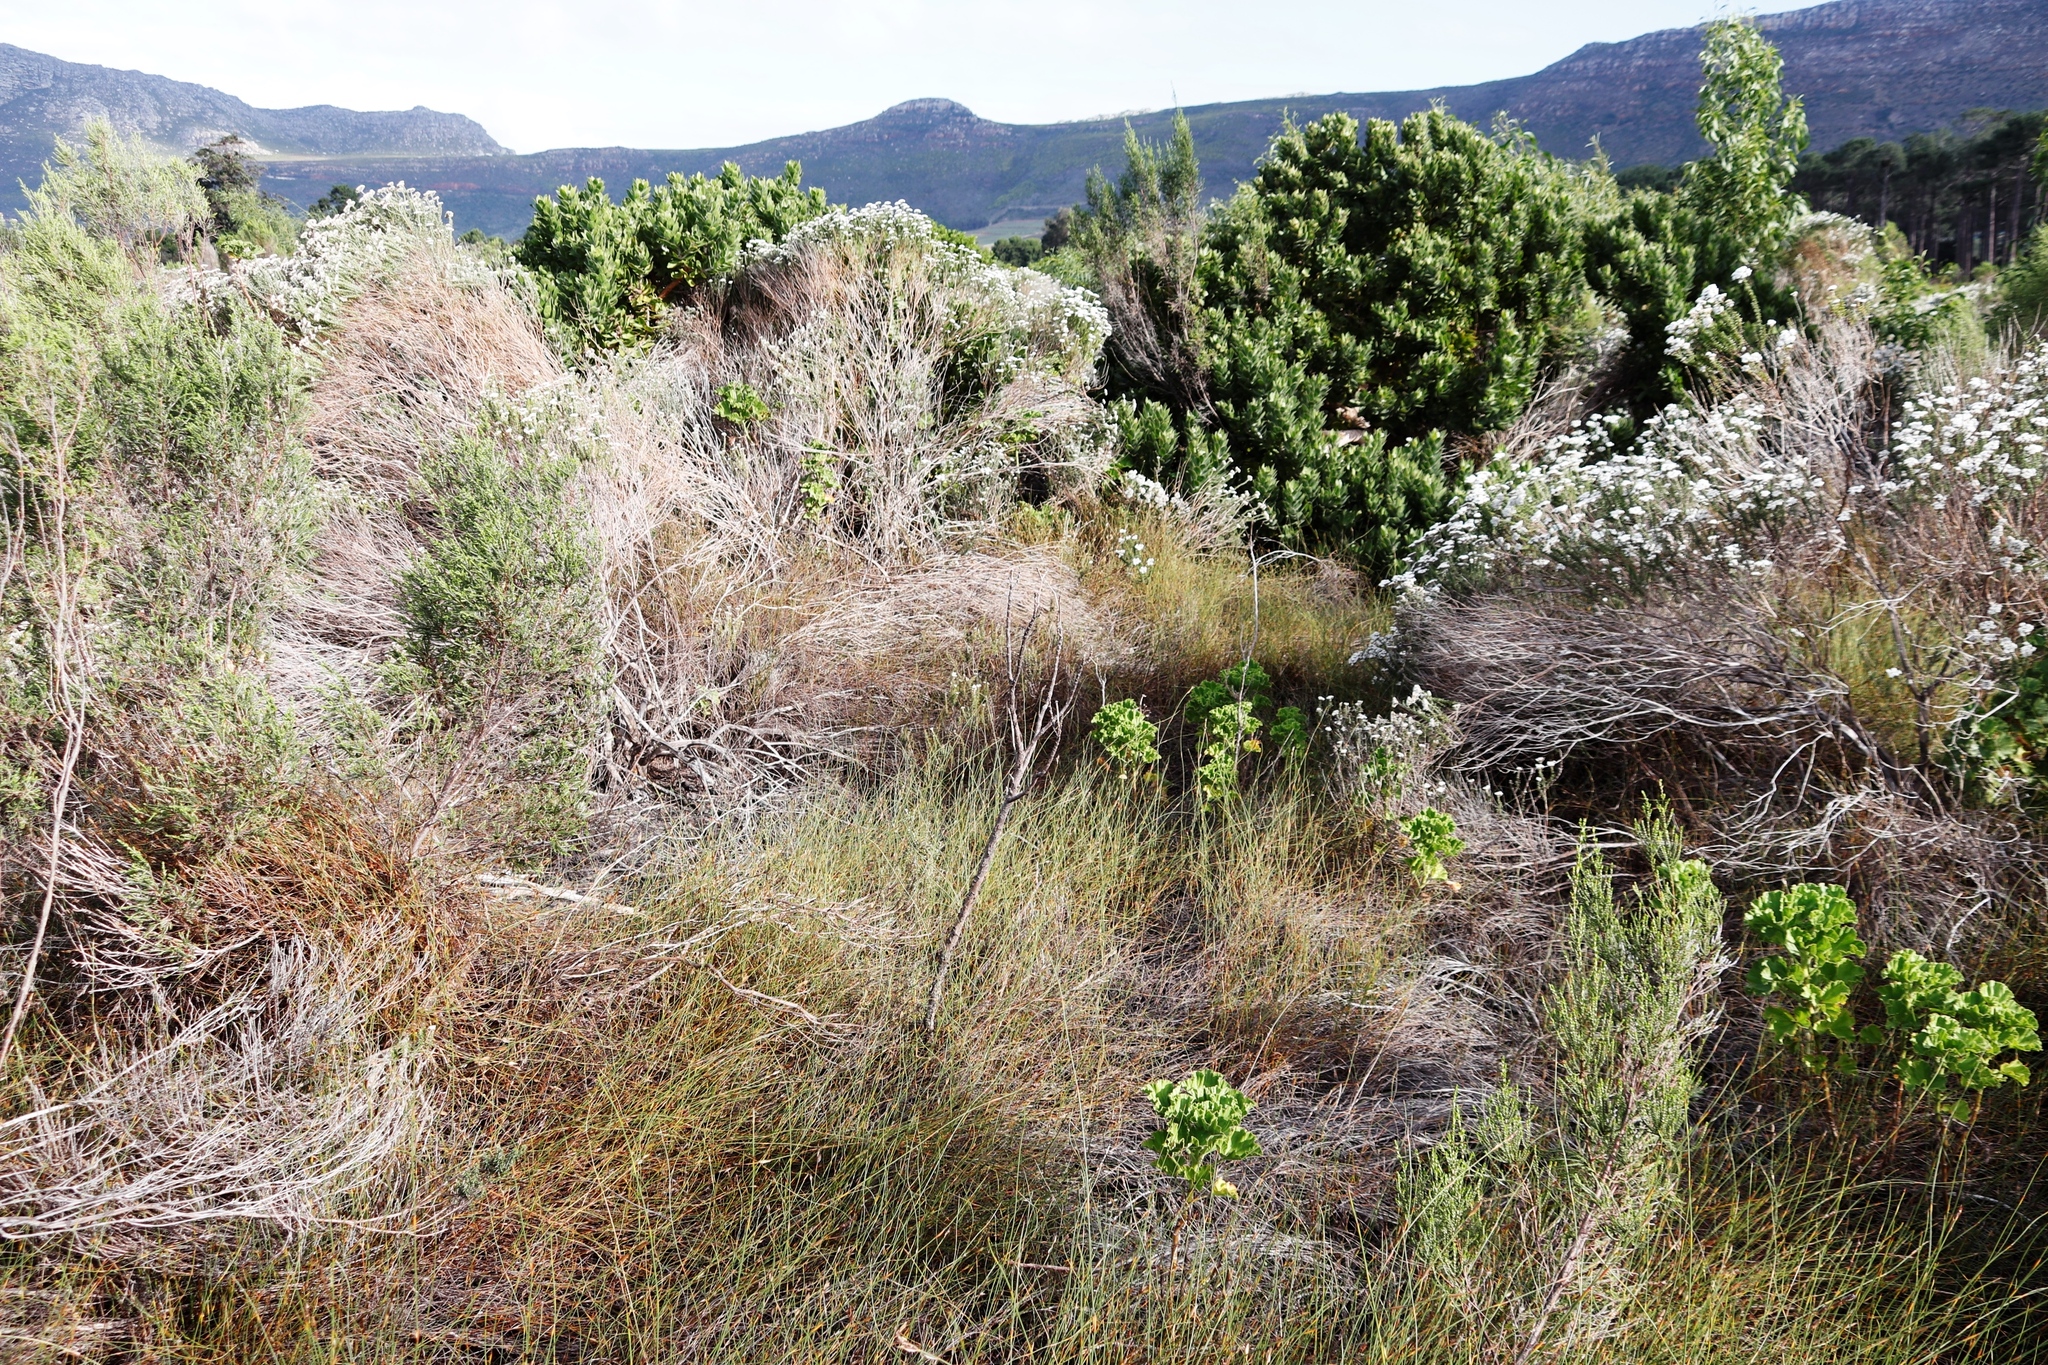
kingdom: Plantae
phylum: Tracheophyta
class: Magnoliopsida
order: Proteales
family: Proteaceae
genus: Leucospermum
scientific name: Leucospermum conocarpodendron
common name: Tree pincushion
